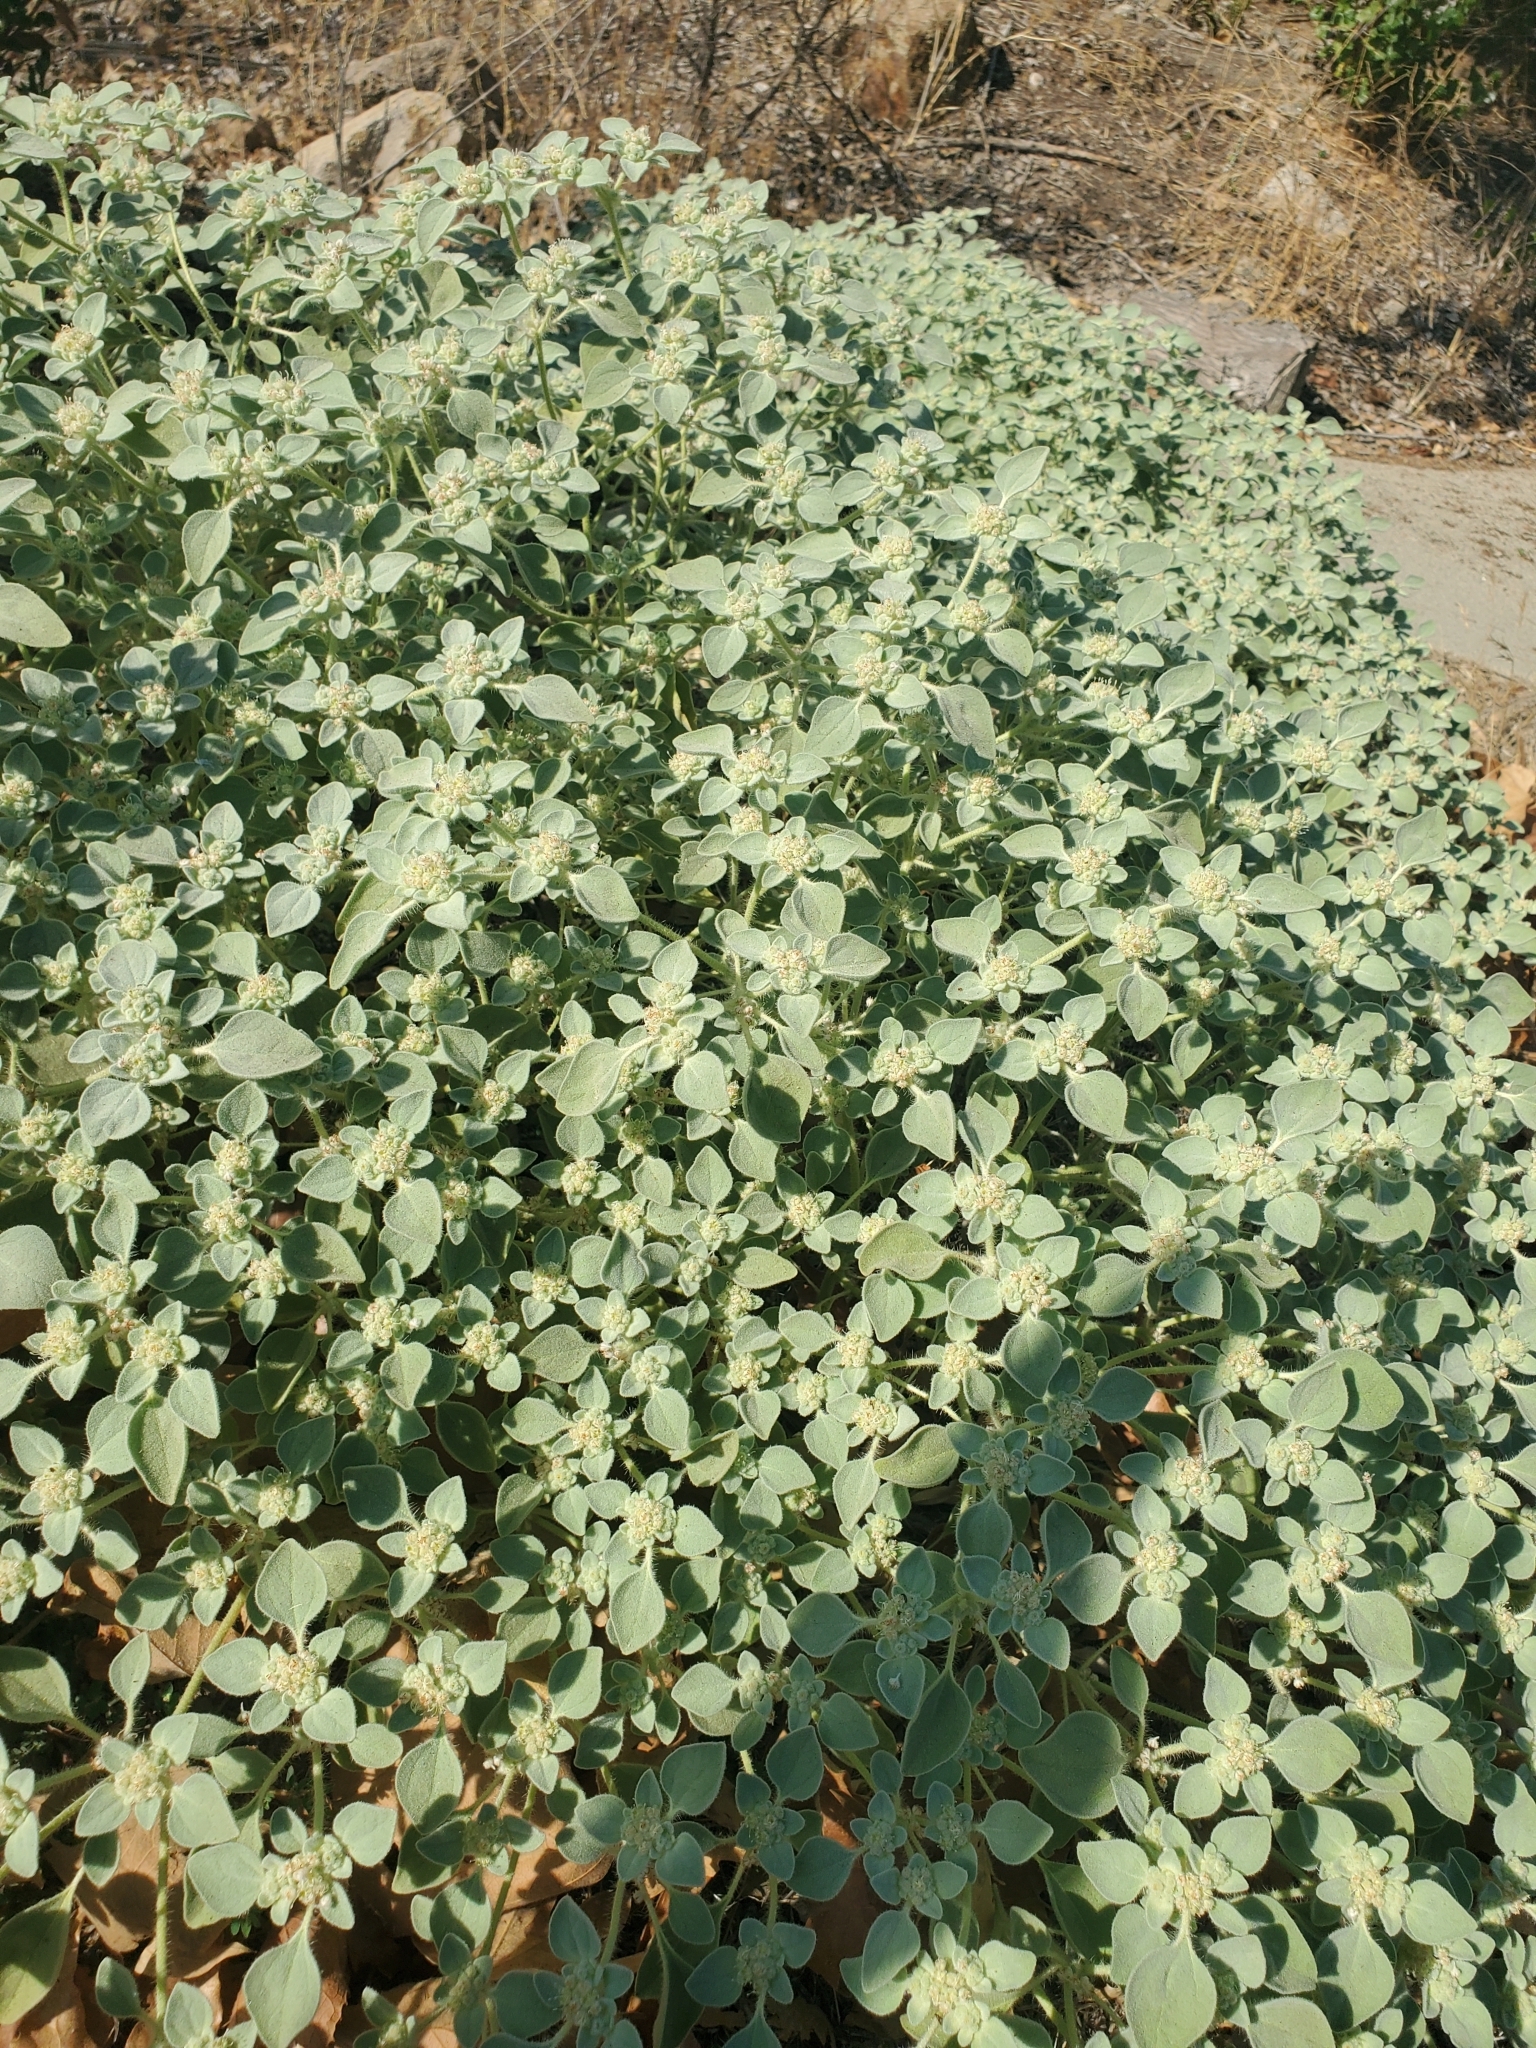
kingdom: Plantae
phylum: Tracheophyta
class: Magnoliopsida
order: Malpighiales
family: Euphorbiaceae
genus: Croton
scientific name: Croton setiger
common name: Dove weed
